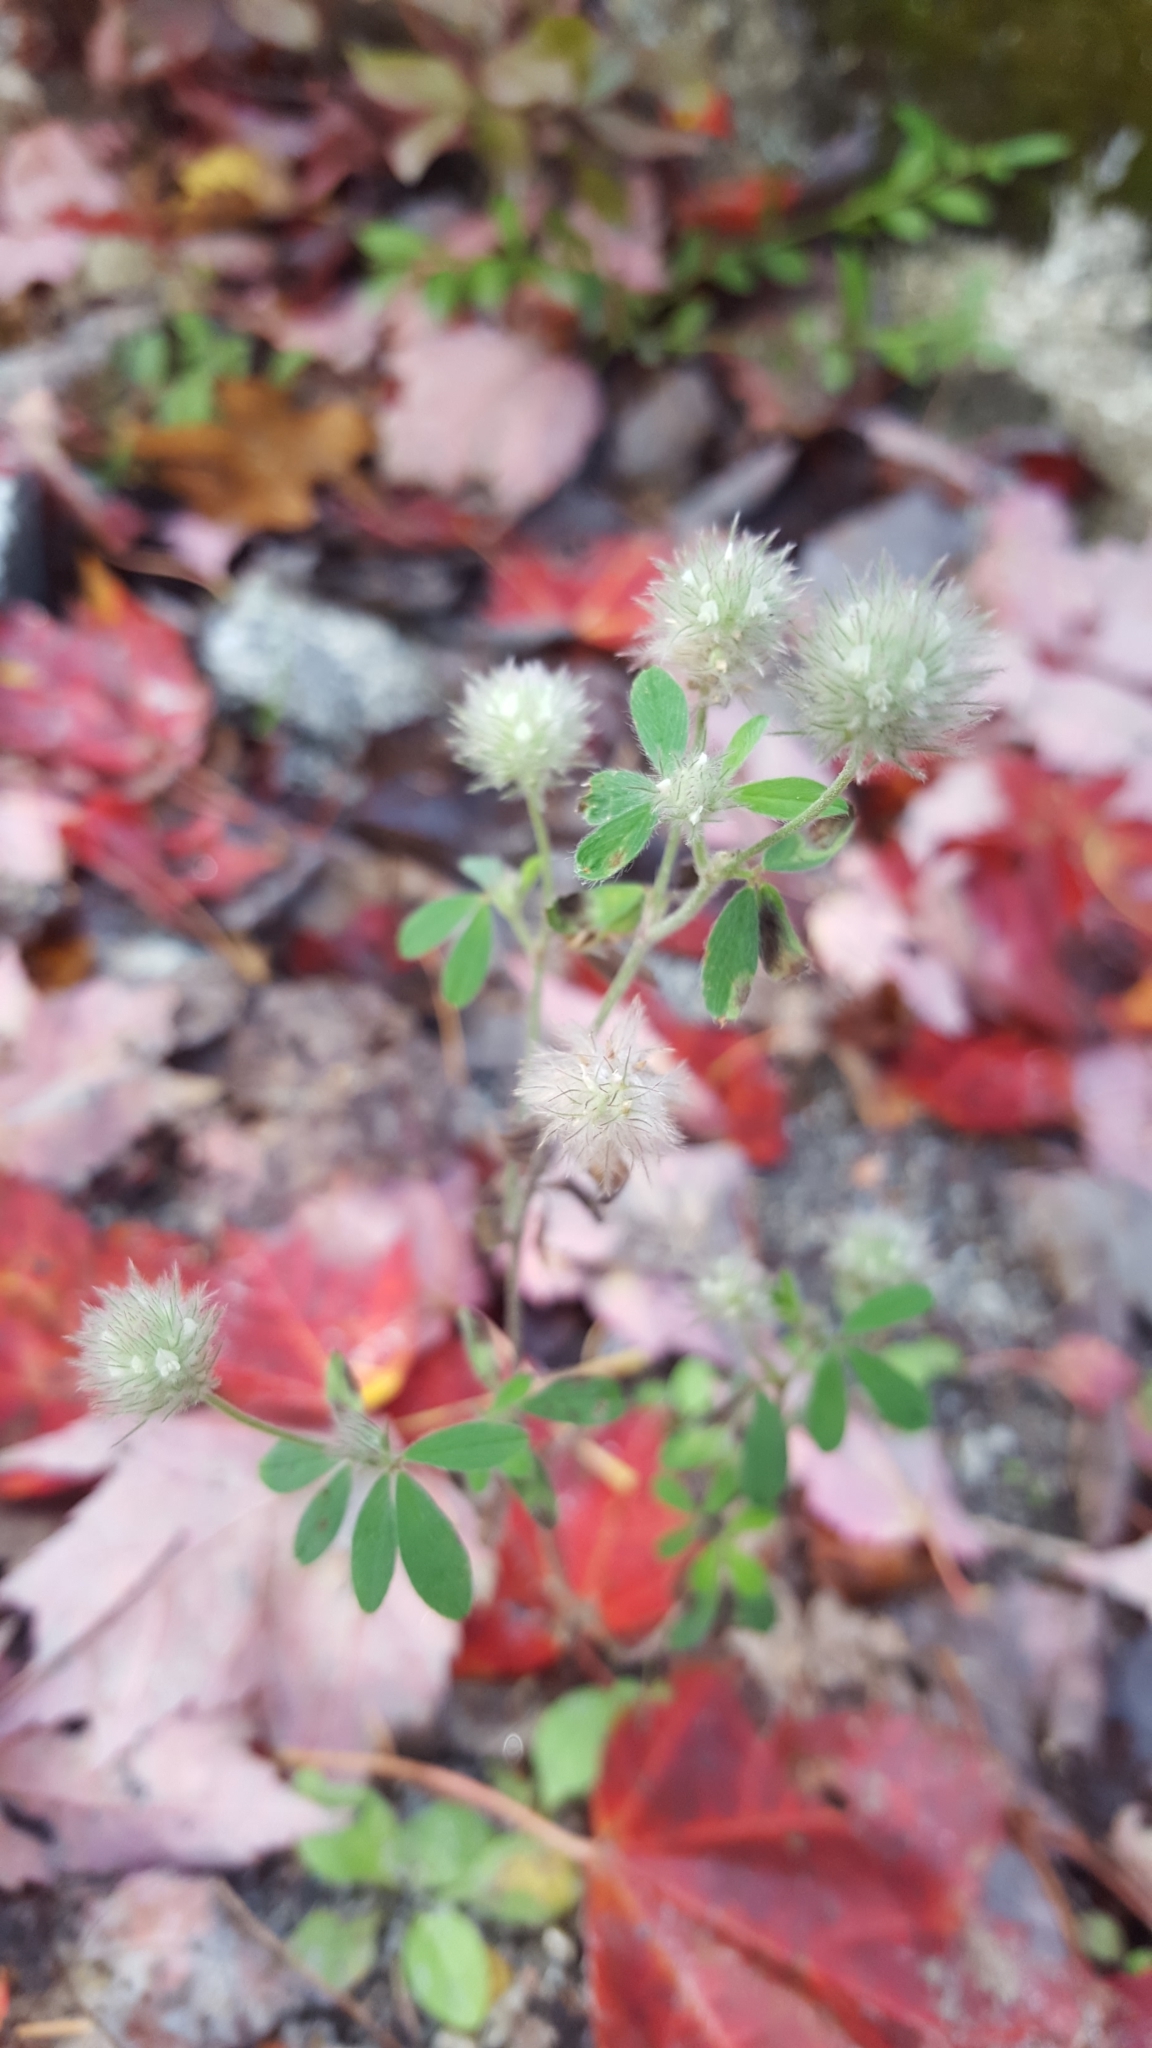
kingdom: Plantae
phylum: Tracheophyta
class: Magnoliopsida
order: Fabales
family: Fabaceae
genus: Trifolium
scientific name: Trifolium arvense
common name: Hare's-foot clover
